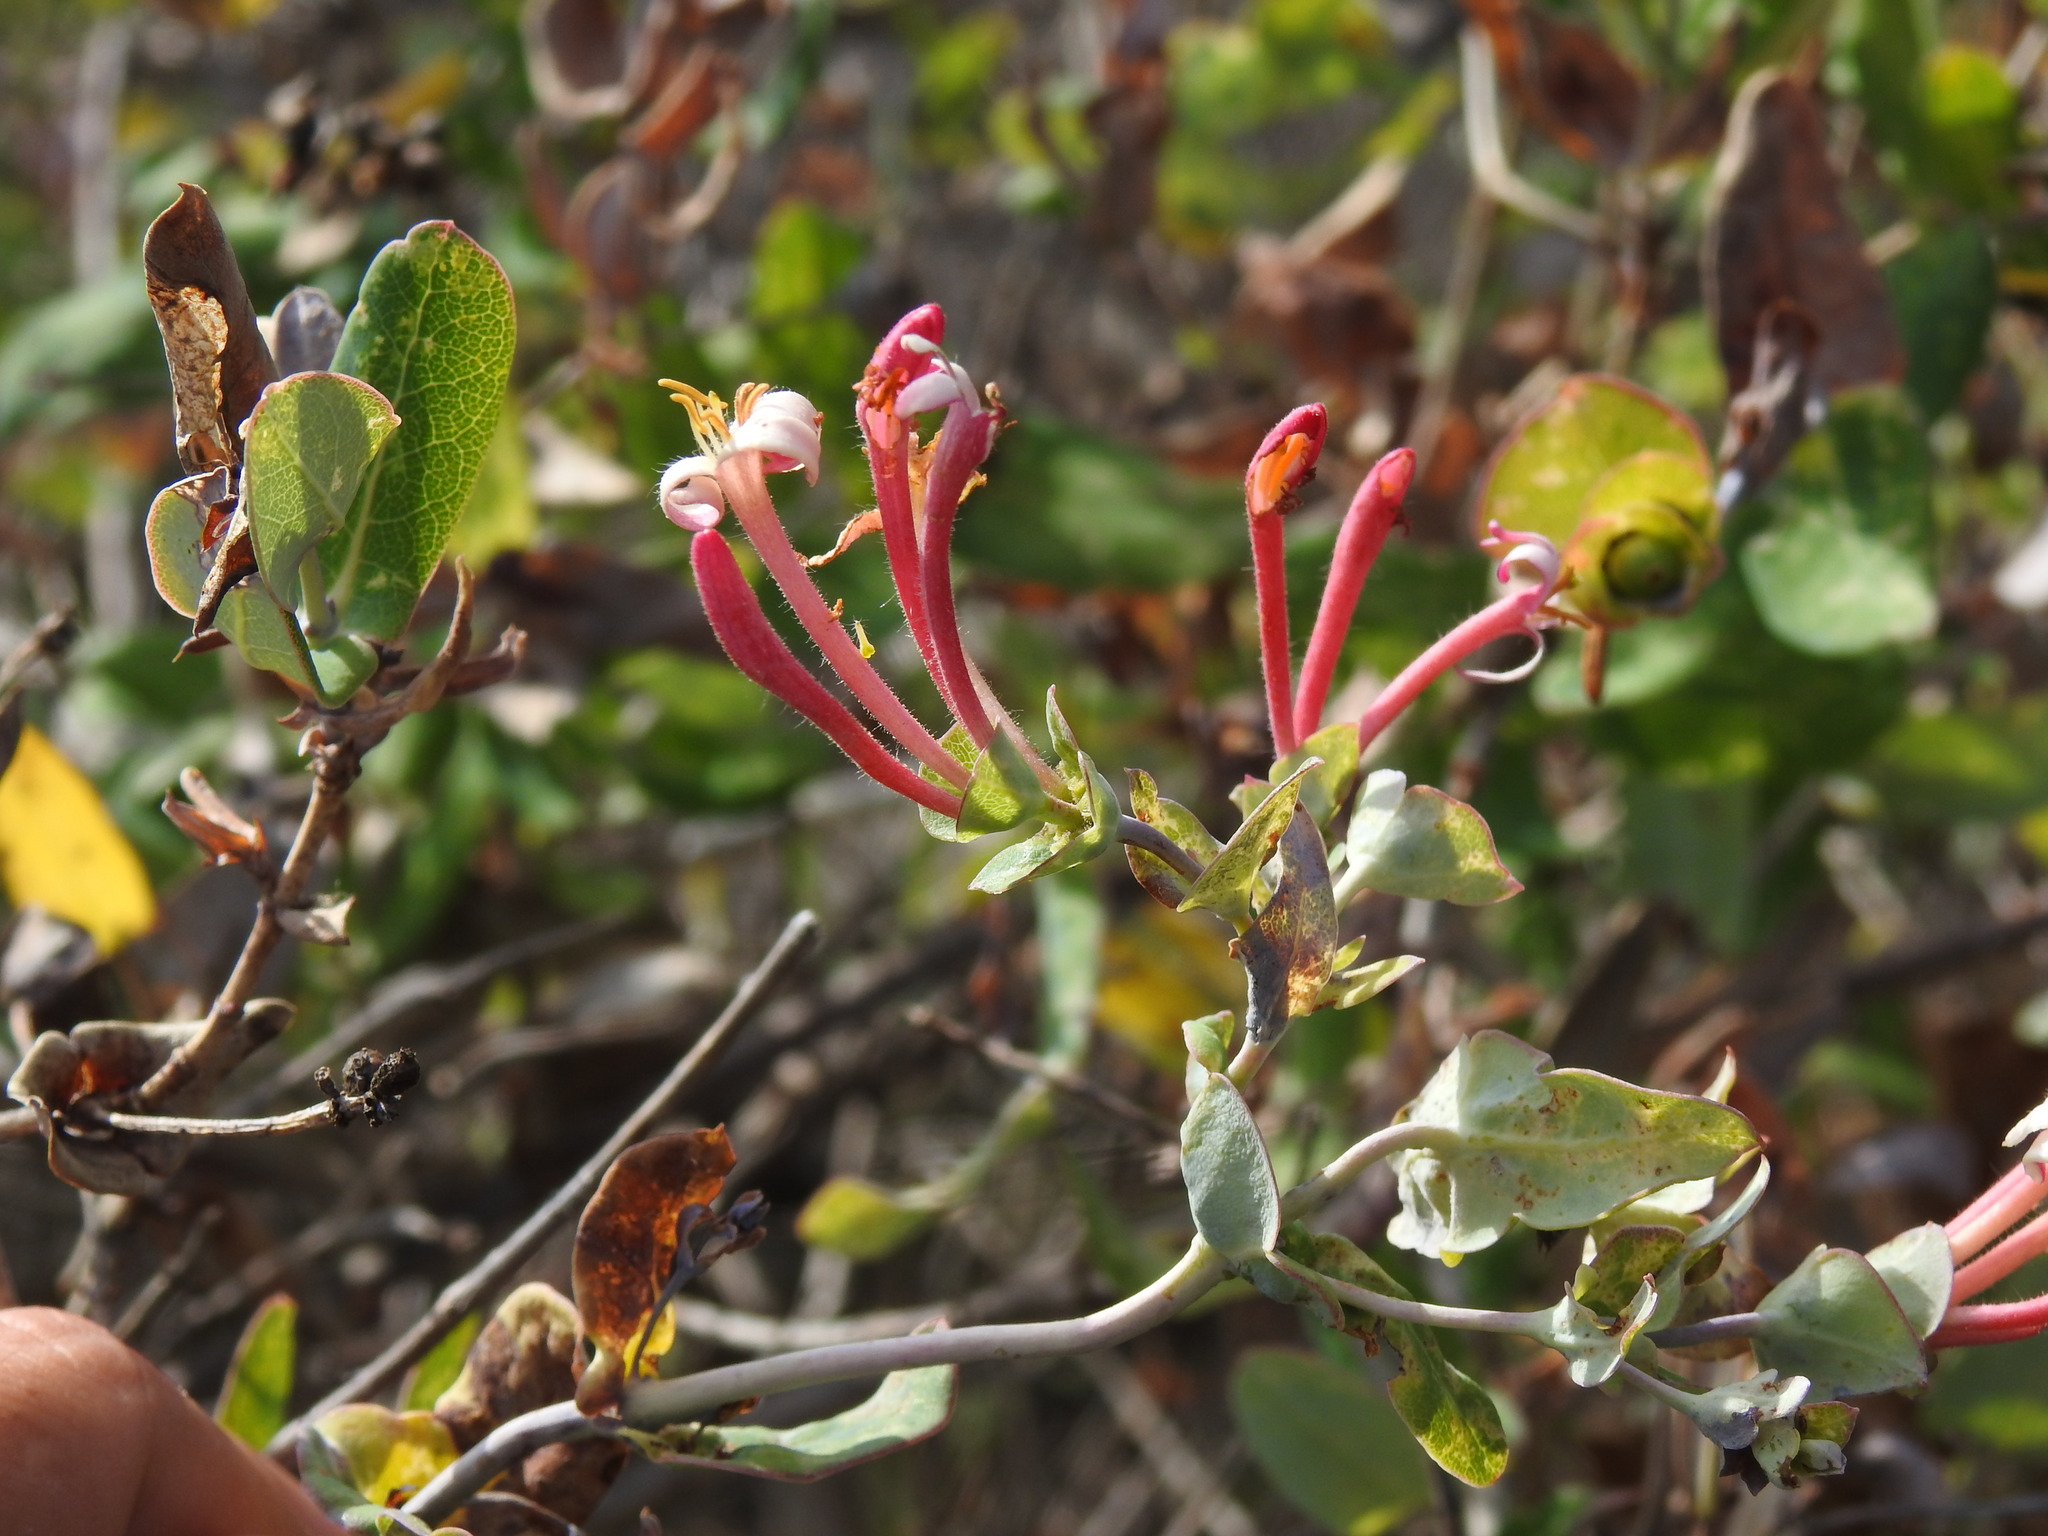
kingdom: Plantae
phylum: Tracheophyta
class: Magnoliopsida
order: Dipsacales
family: Caprifoliaceae
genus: Lonicera
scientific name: Lonicera implexa
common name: Minorca honeysuckle
